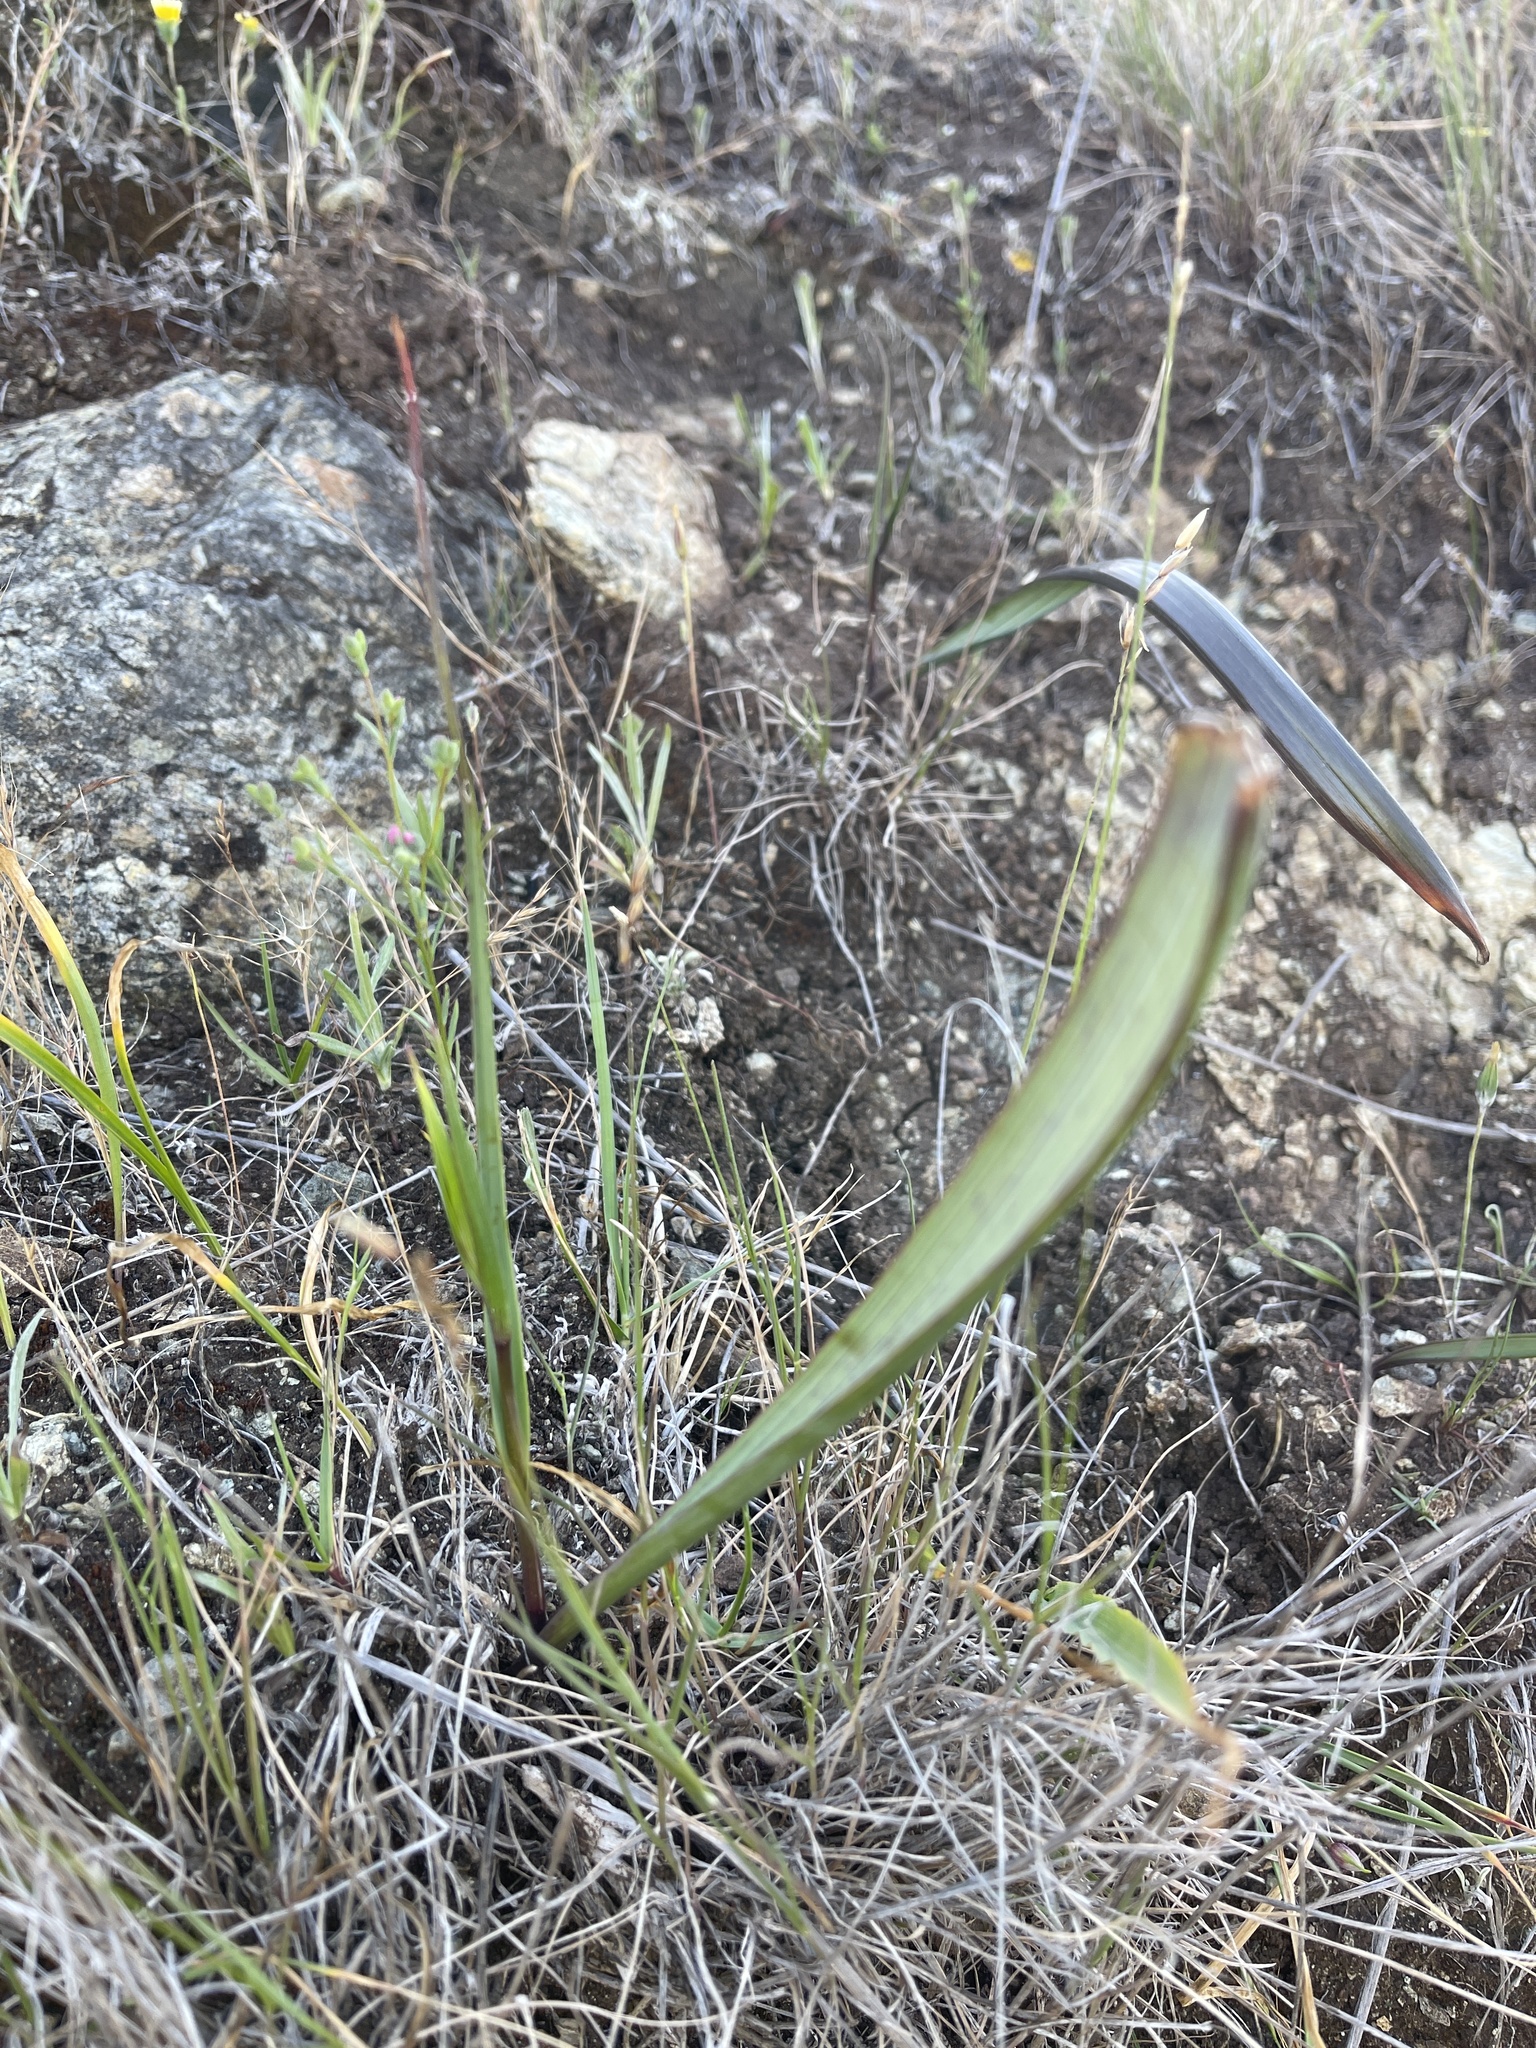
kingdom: Plantae
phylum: Tracheophyta
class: Liliopsida
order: Liliales
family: Liliaceae
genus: Calochortus
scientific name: Calochortus tiburonensis
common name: Tiburon mariposa-lily
